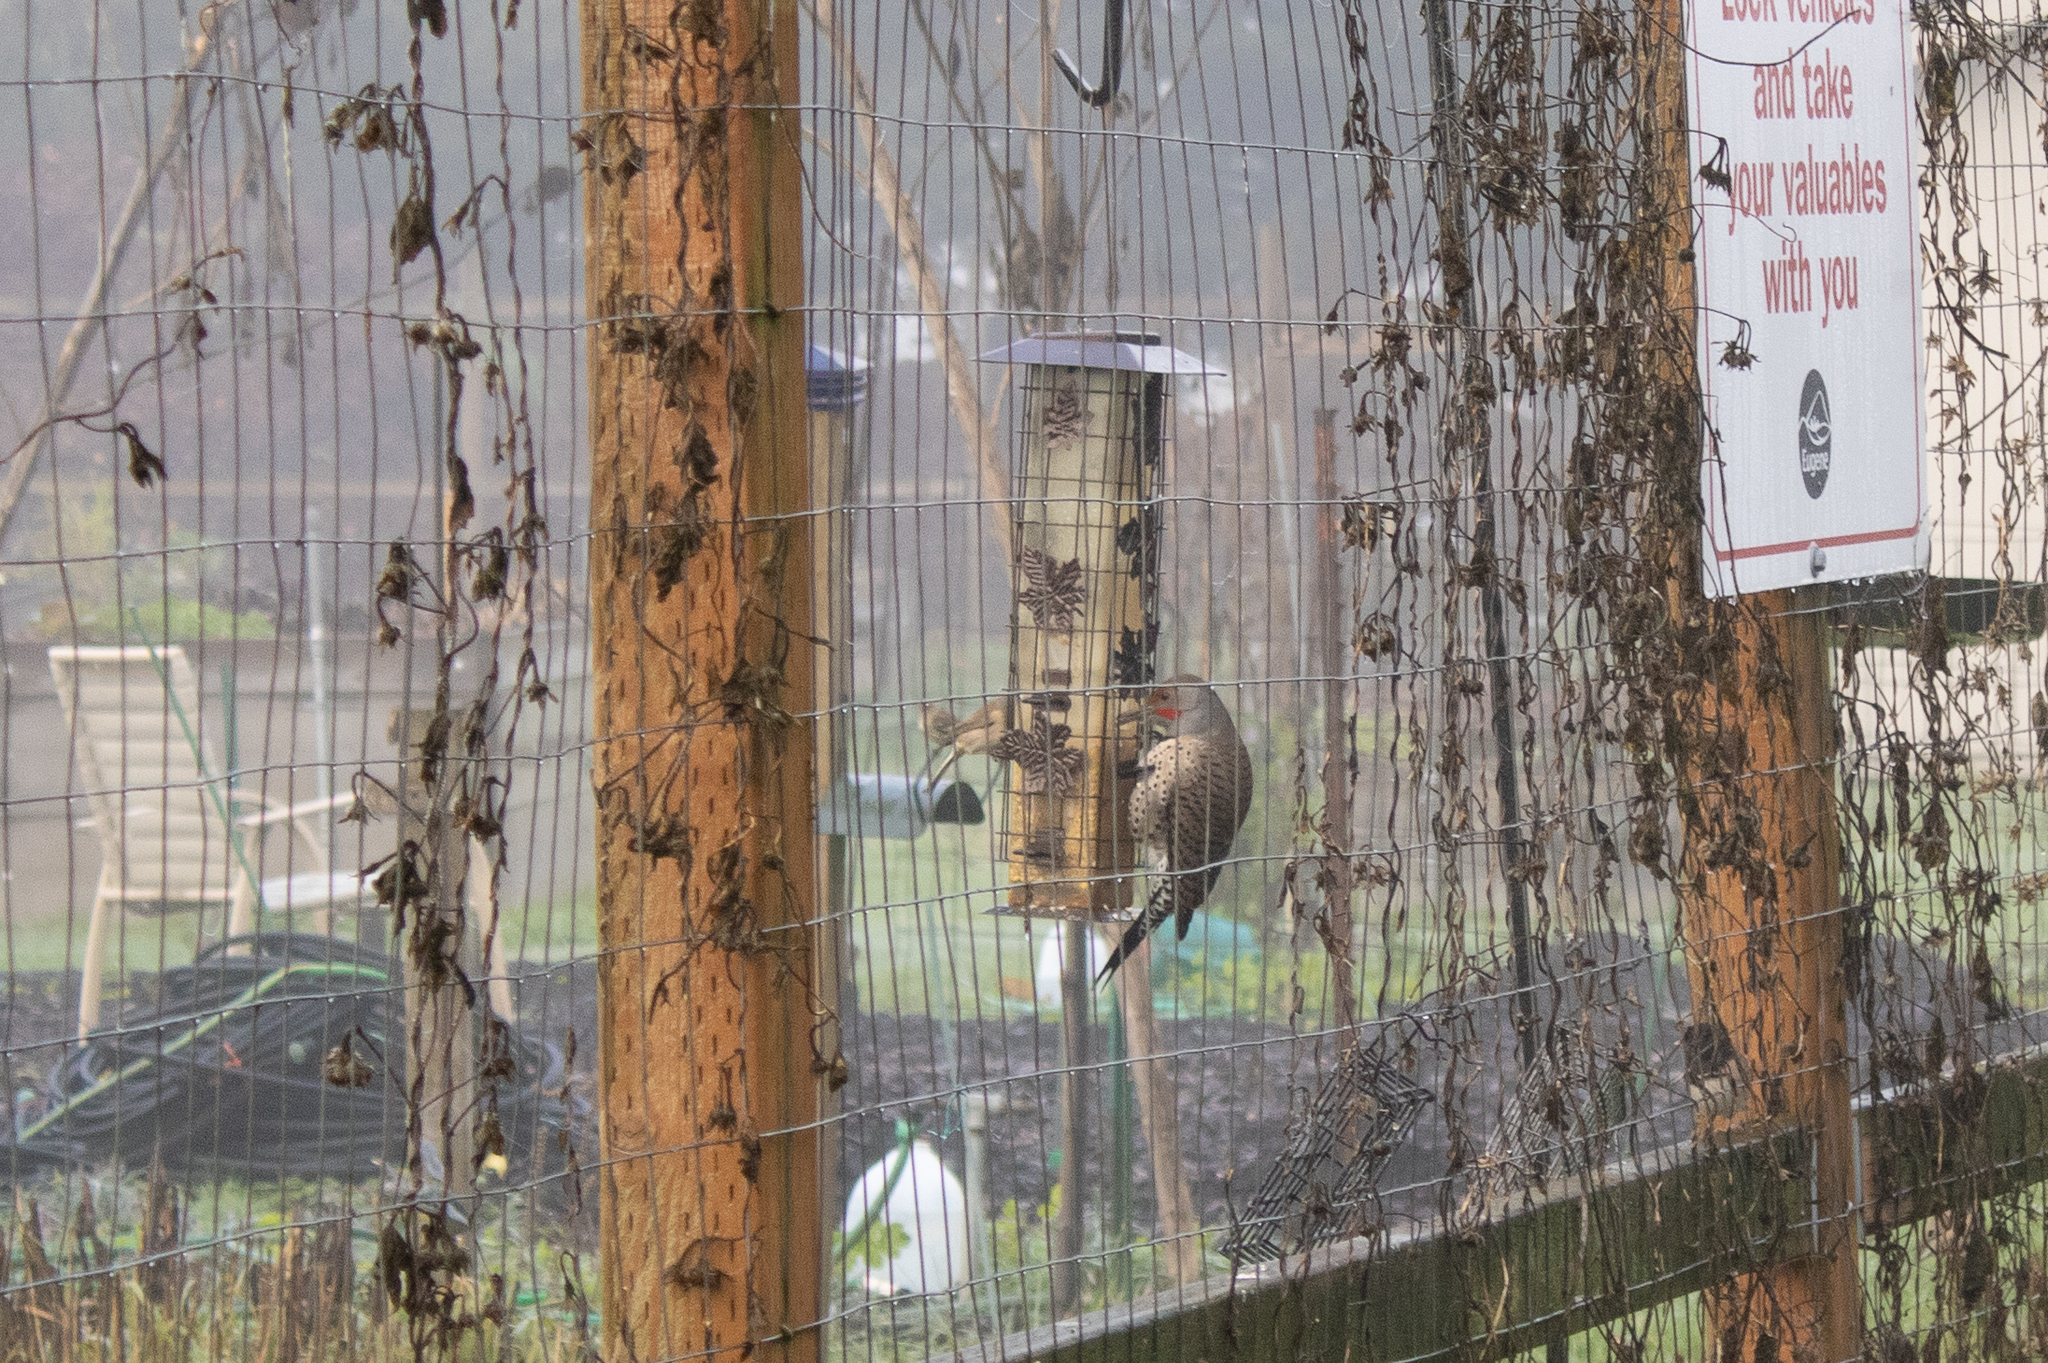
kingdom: Animalia
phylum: Chordata
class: Aves
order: Piciformes
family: Picidae
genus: Colaptes
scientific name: Colaptes auratus
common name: Northern flicker
